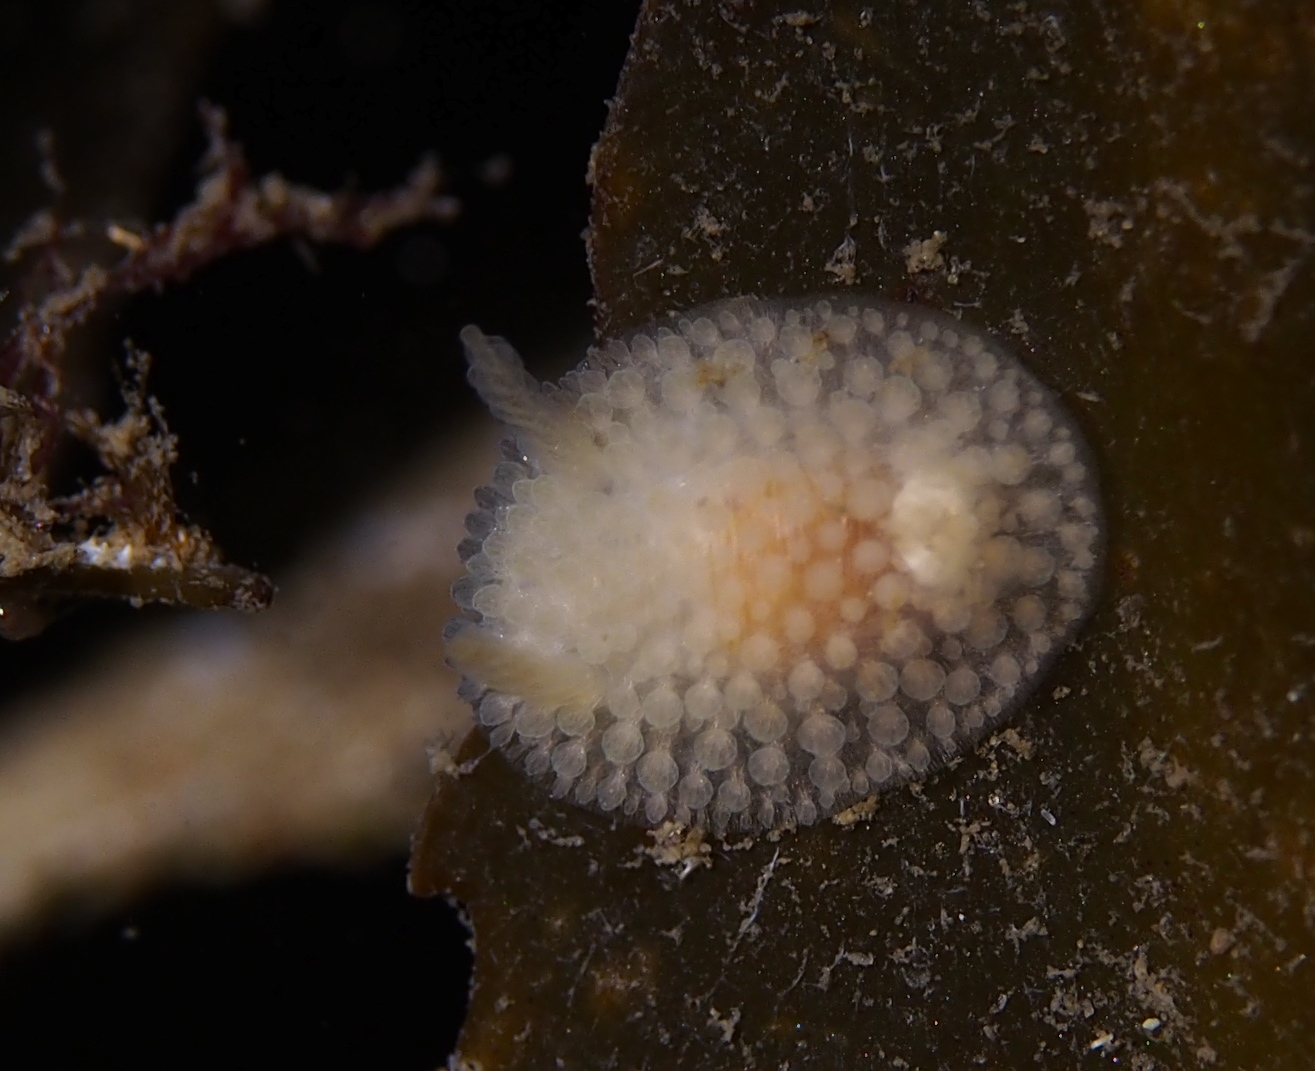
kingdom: Animalia
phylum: Mollusca
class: Gastropoda
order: Nudibranchia
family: Onchidorididae
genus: Onchidoris
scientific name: Onchidoris muricata
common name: Rough doris
